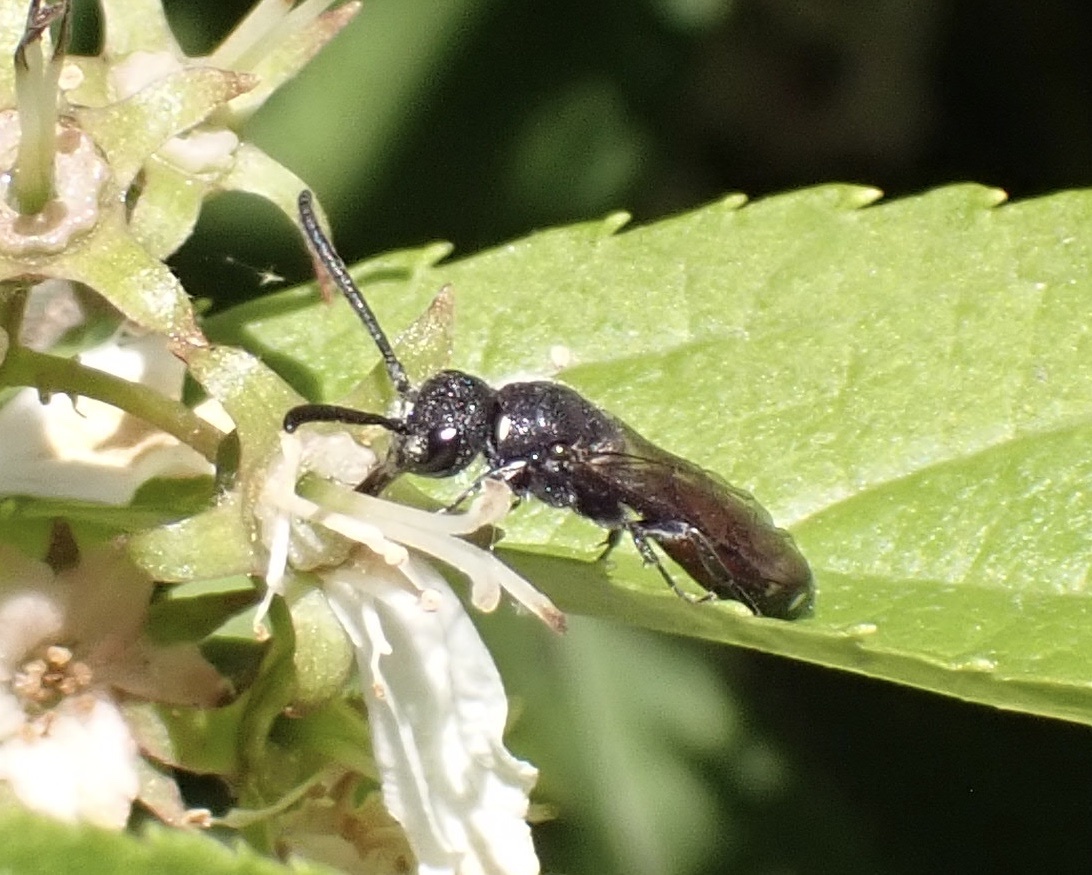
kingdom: Animalia
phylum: Arthropoda
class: Insecta
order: Hymenoptera
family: Sapygidae
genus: Sapyga
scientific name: Sapyga quinquepunctata
